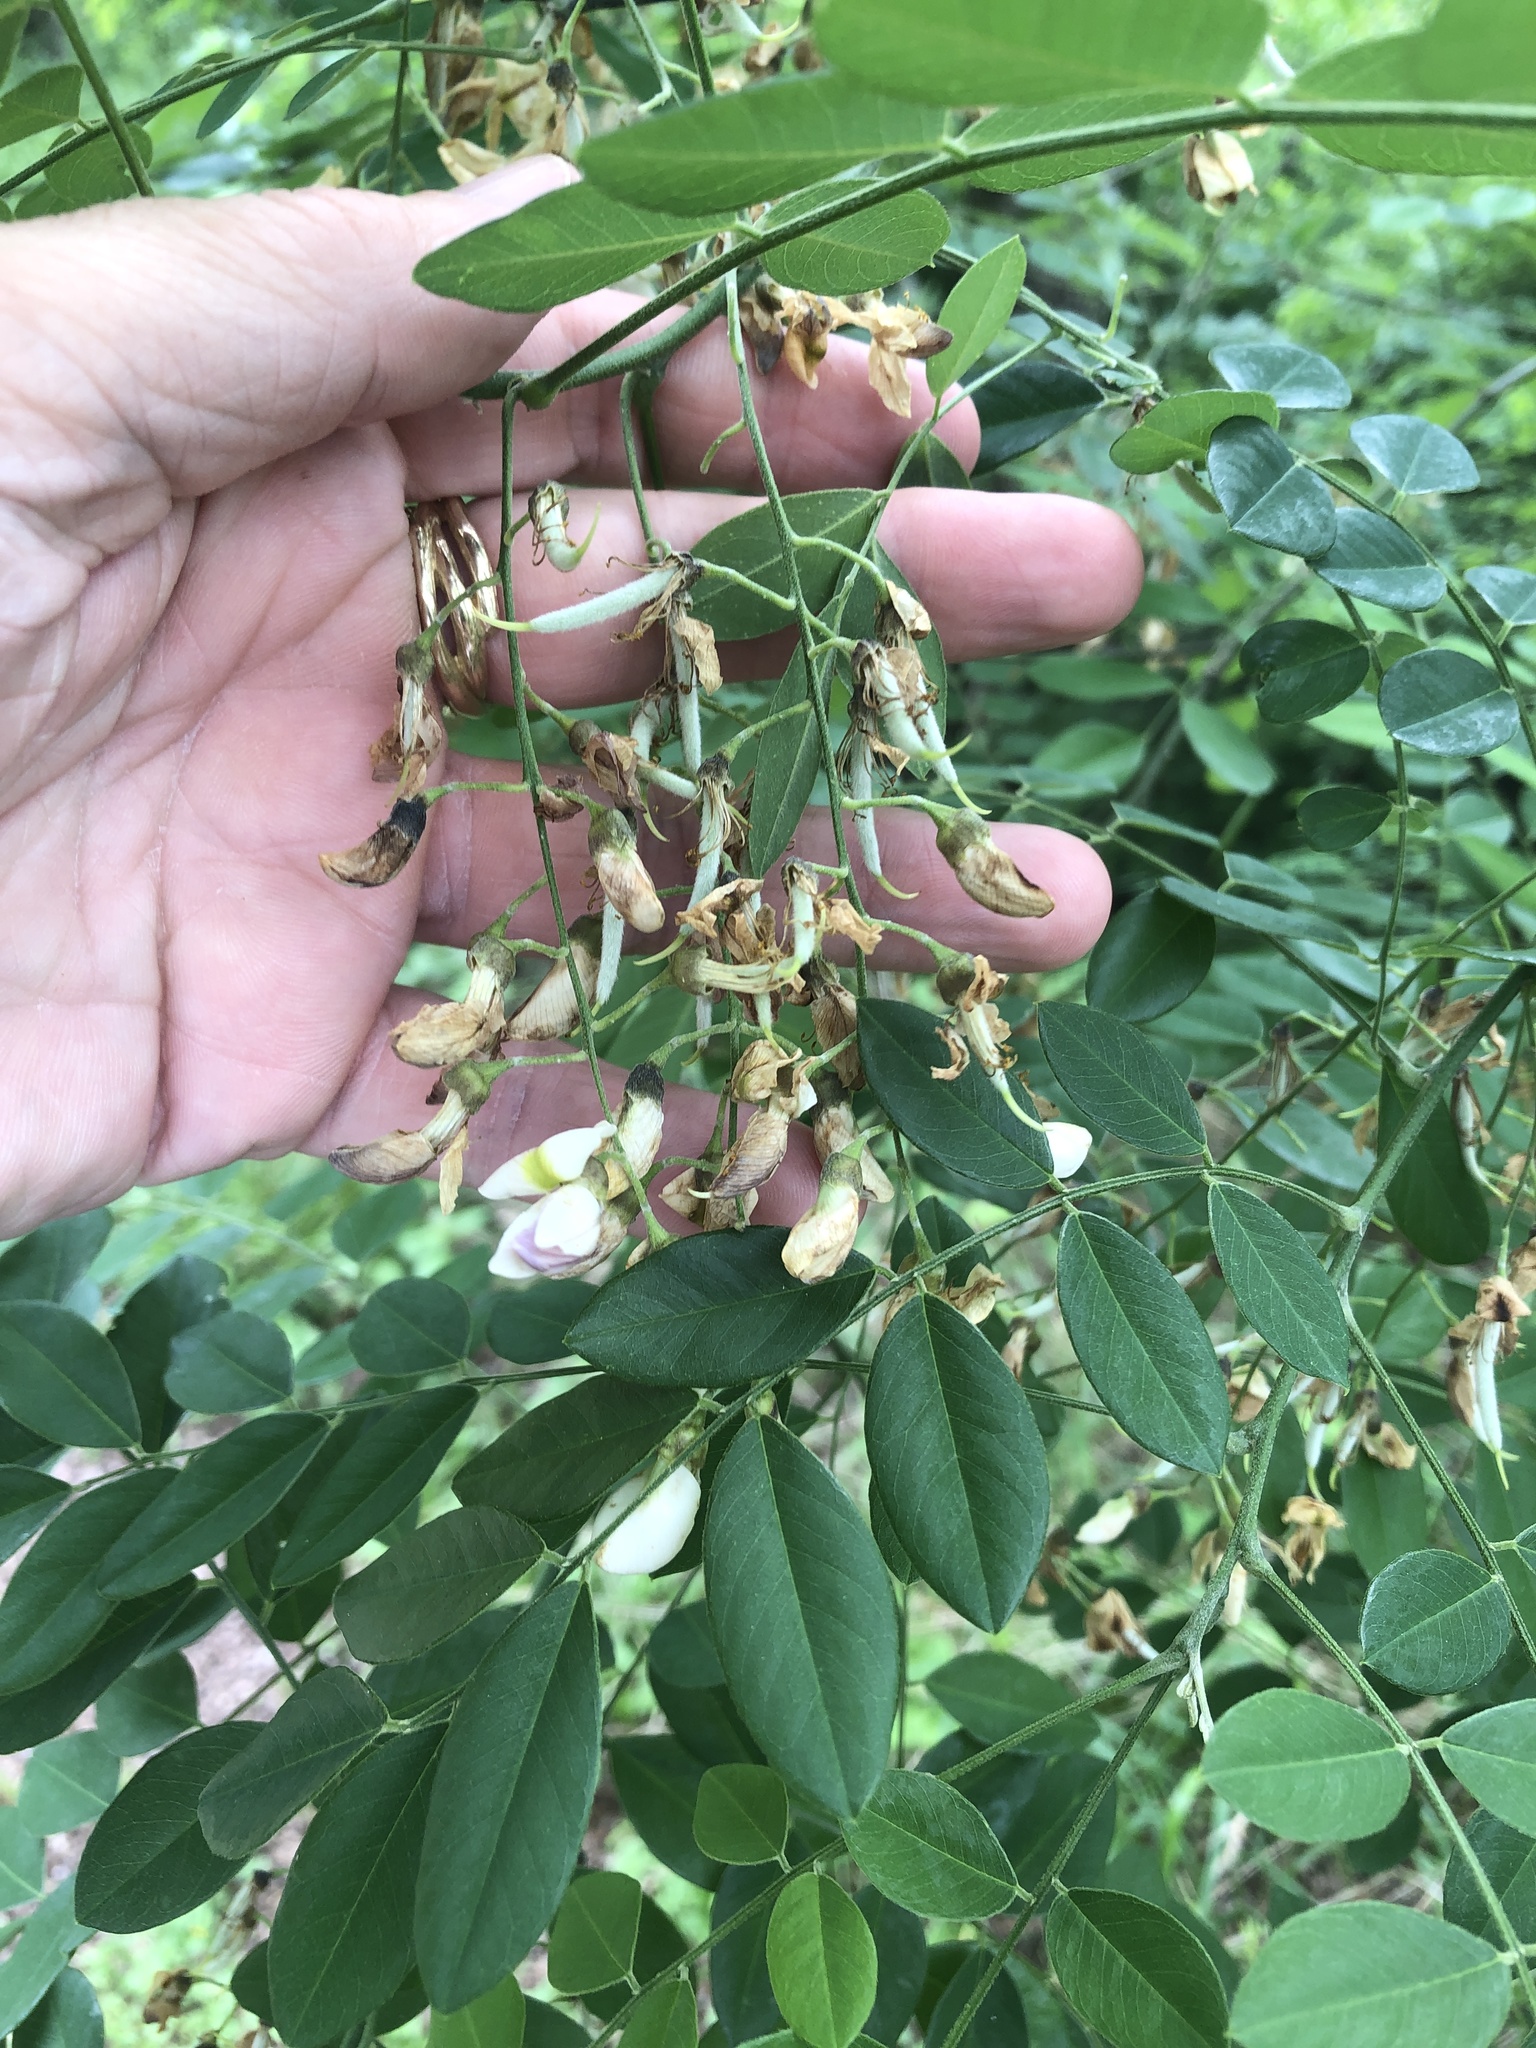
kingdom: Plantae
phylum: Tracheophyta
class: Magnoliopsida
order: Fabales
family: Fabaceae
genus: Styphnolobium
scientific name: Styphnolobium affine
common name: Texas sophora
